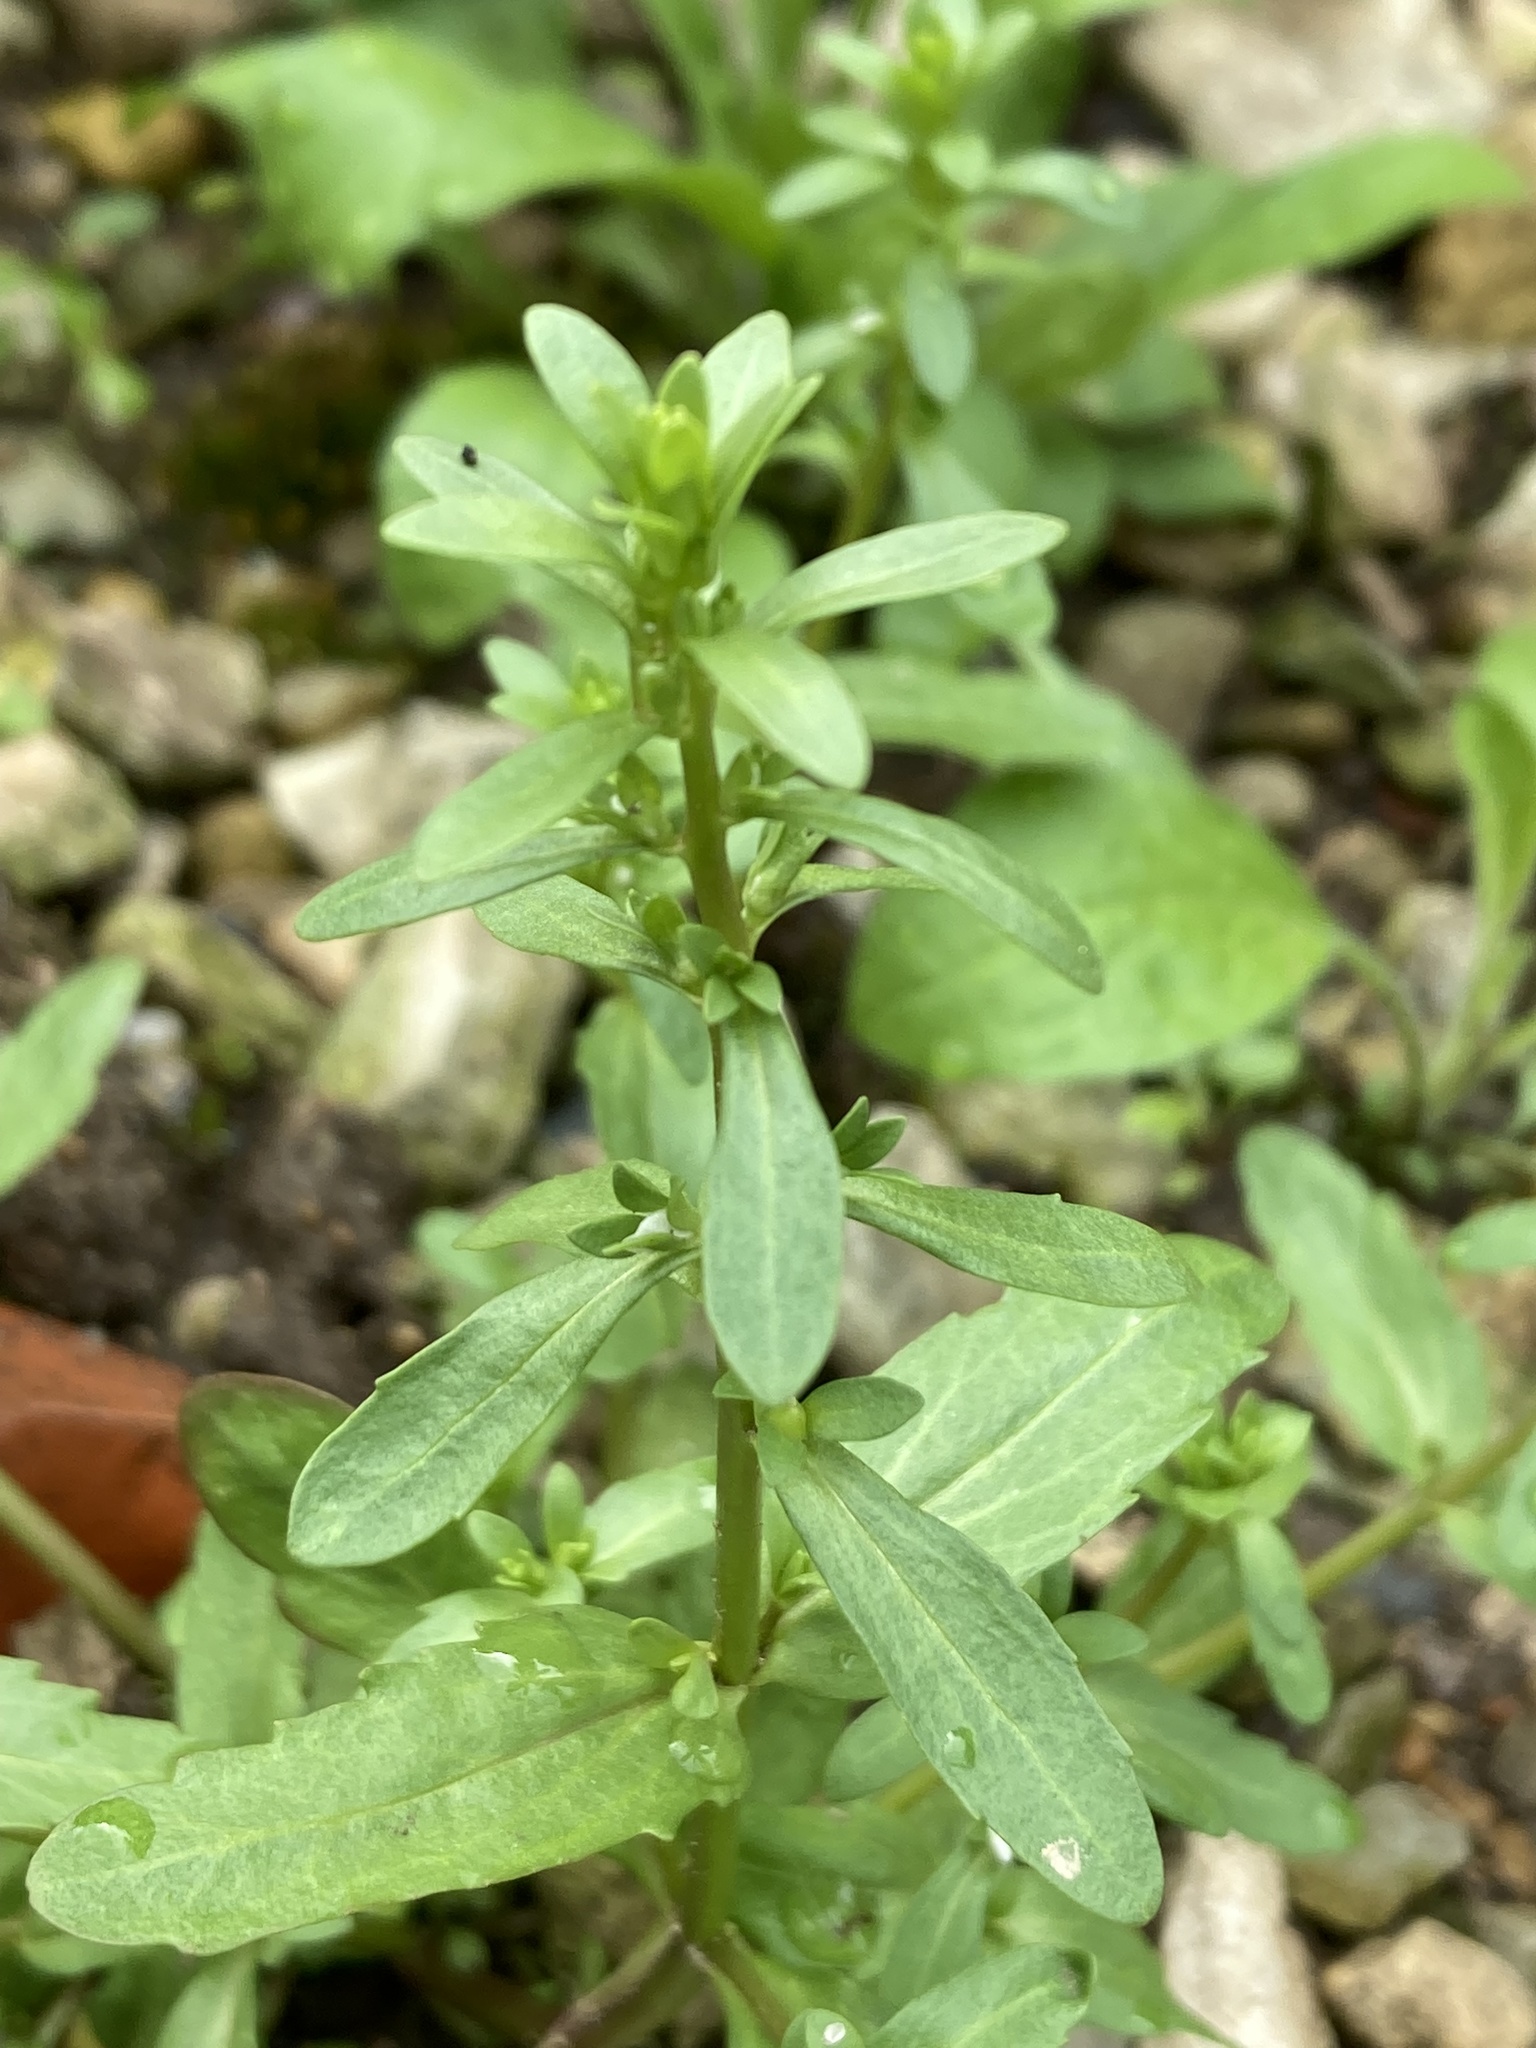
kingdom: Plantae
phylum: Tracheophyta
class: Magnoliopsida
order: Lamiales
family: Plantaginaceae
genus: Veronica
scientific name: Veronica peregrina
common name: Neckweed
